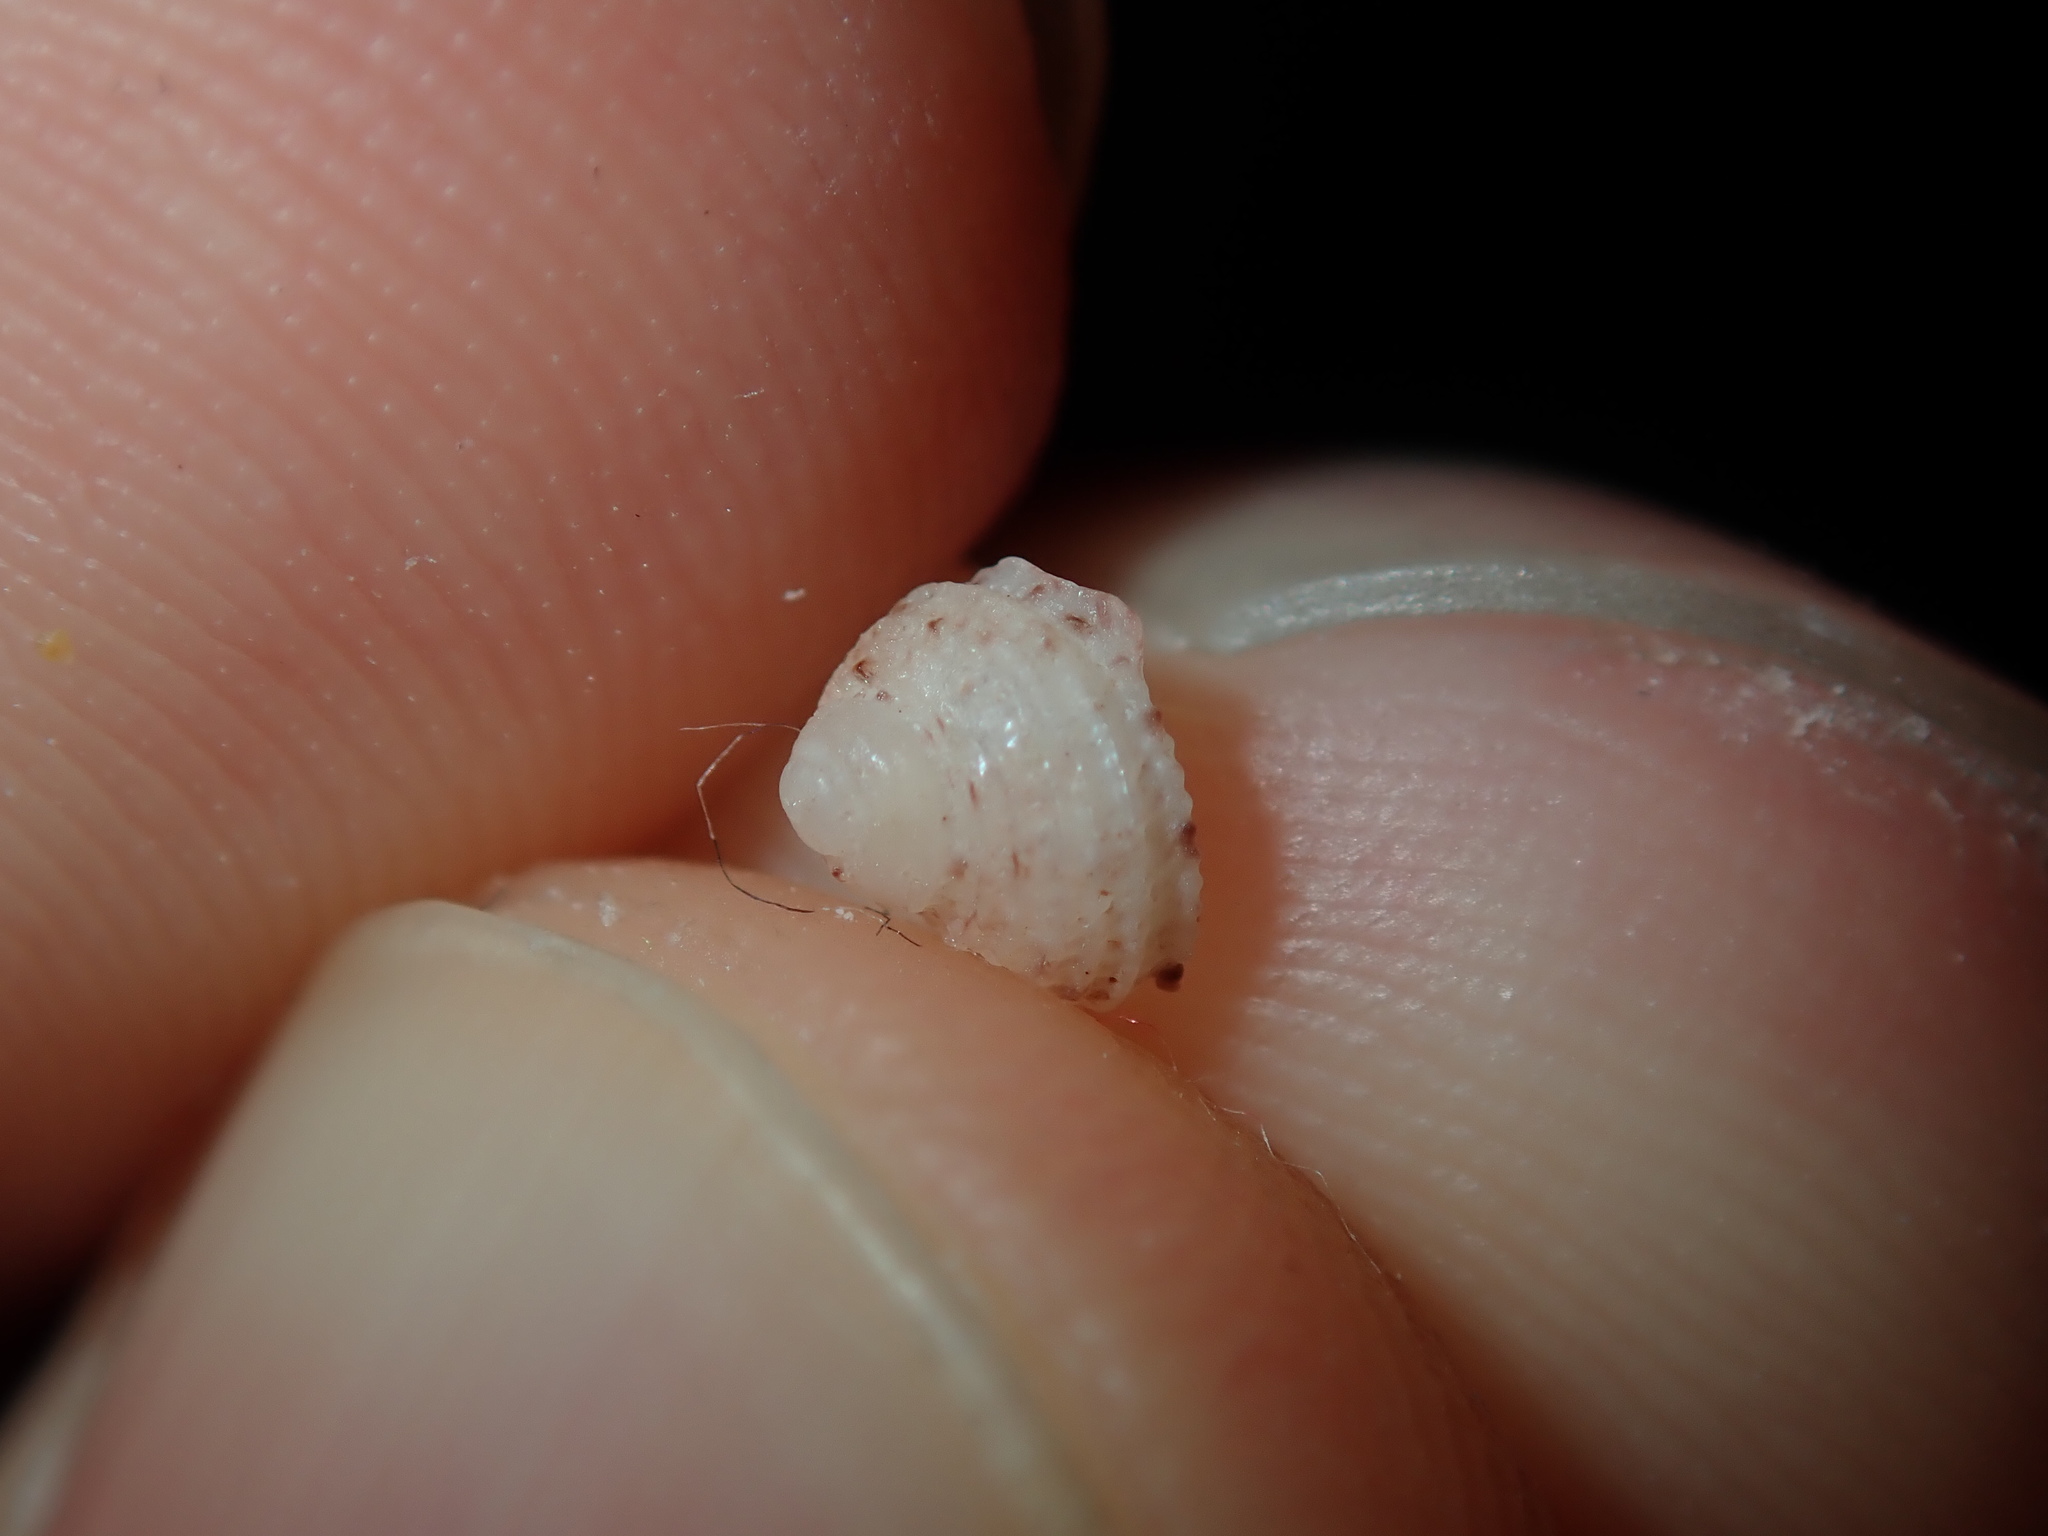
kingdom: Animalia
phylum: Mollusca
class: Gastropoda
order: Seguenziida
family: Chilodontaidae
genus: Vaceuchelus
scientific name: Vaceuchelus ampullus
